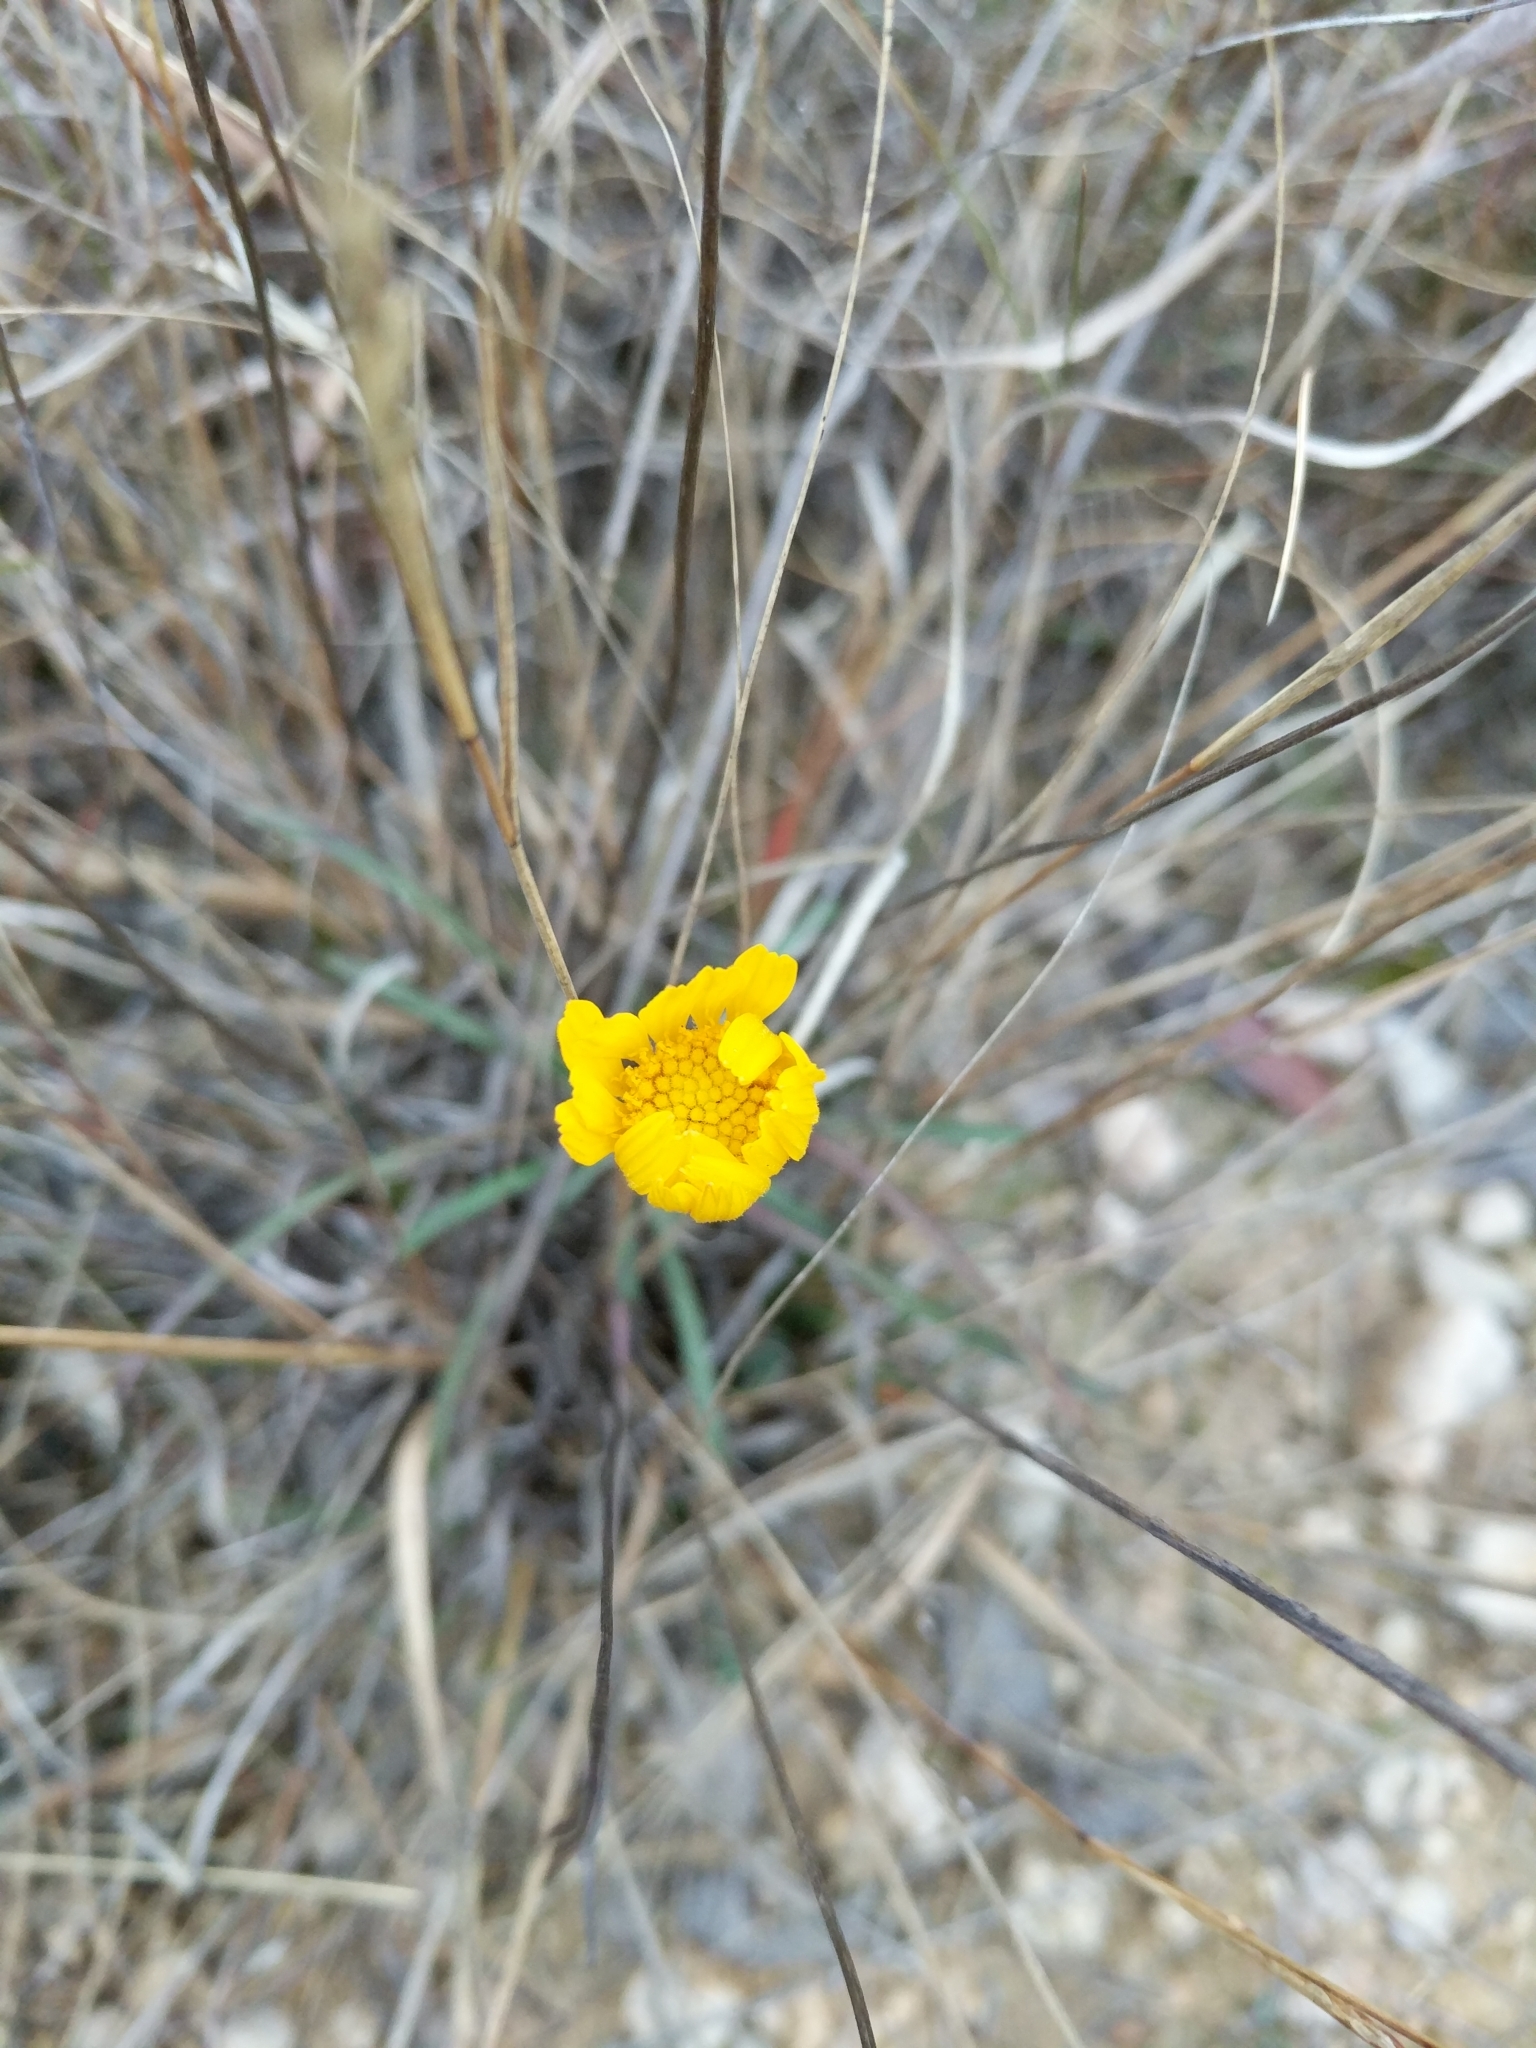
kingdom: Plantae
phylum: Tracheophyta
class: Magnoliopsida
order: Asterales
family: Asteraceae
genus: Tetraneuris
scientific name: Tetraneuris scaposa
